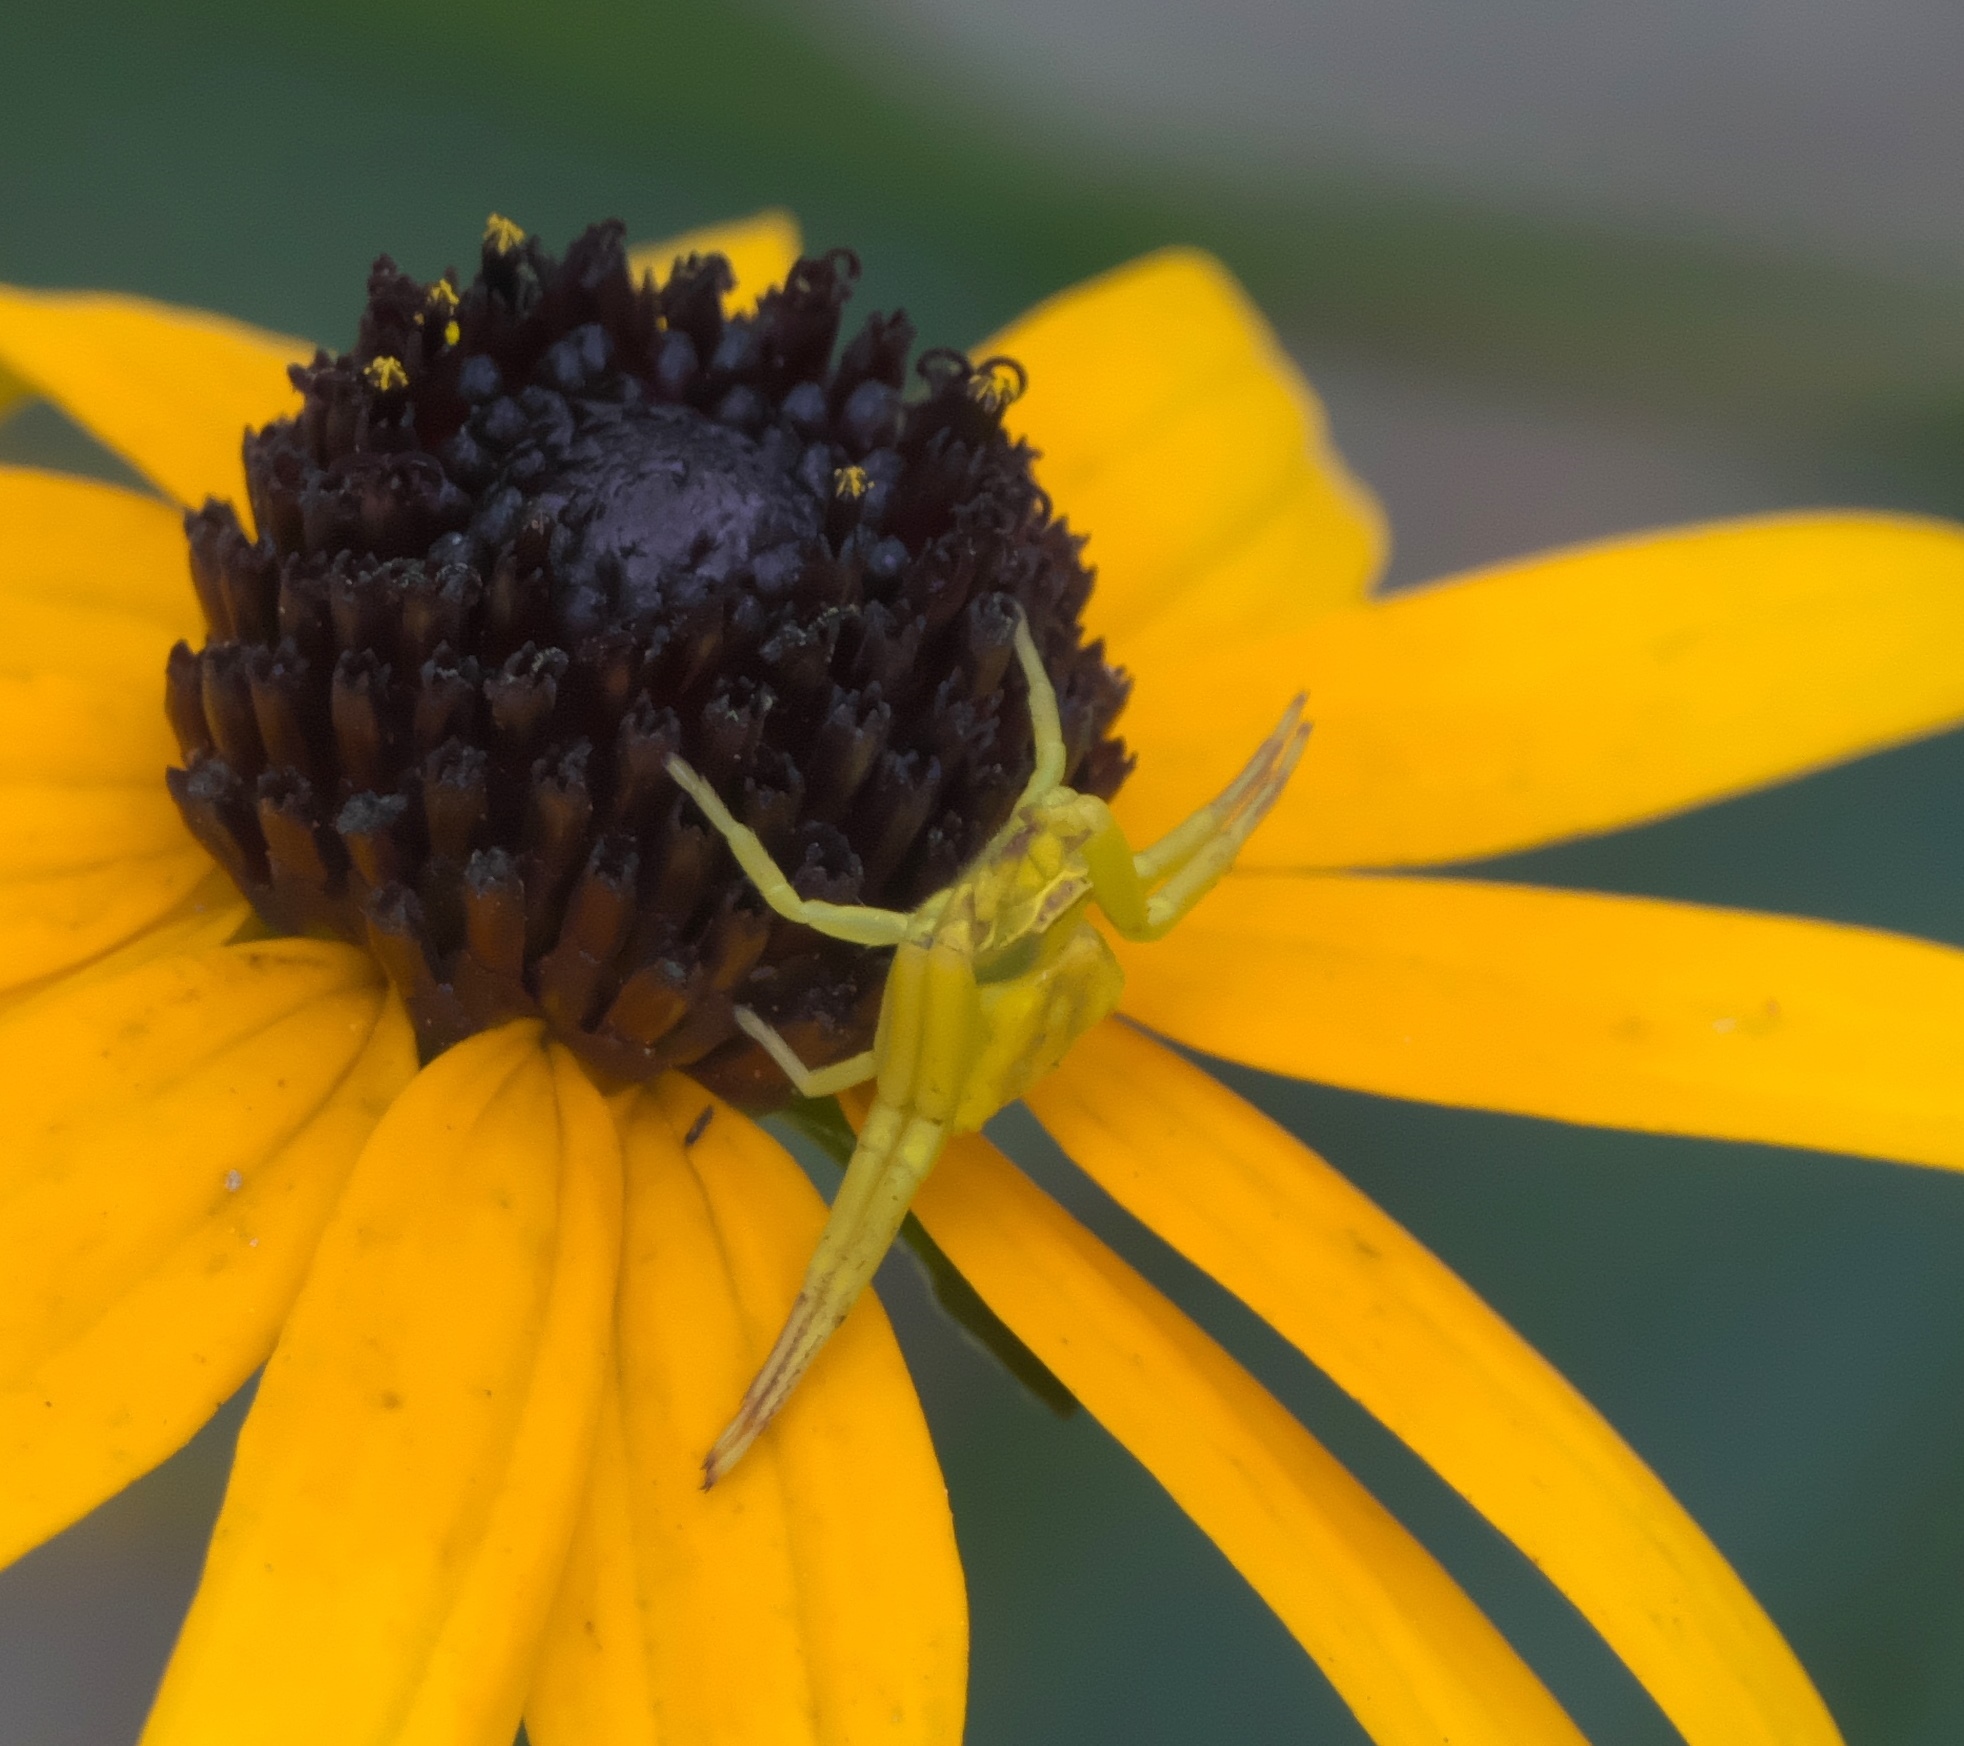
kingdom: Animalia
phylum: Arthropoda
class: Arachnida
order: Araneae
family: Thomisidae
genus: Misumenoides
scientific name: Misumenoides formosipes
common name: White-banded crab spider
